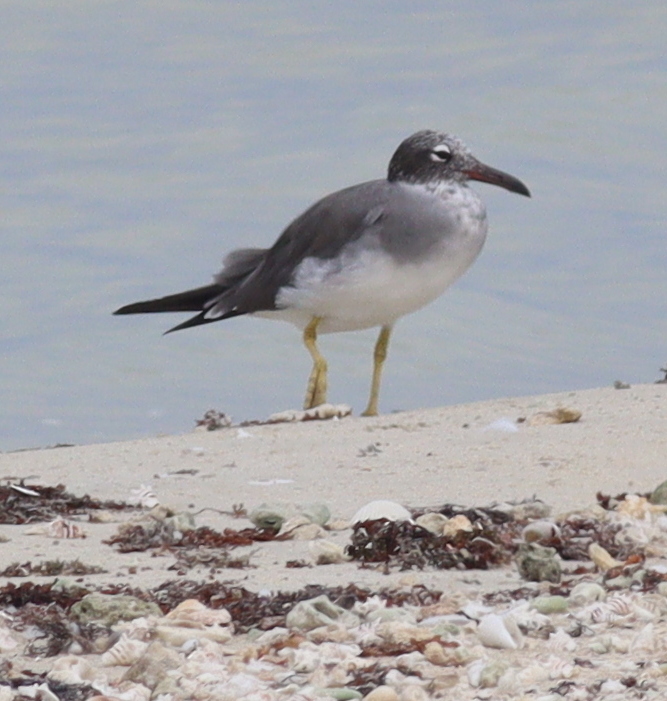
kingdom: Animalia
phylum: Chordata
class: Aves
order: Charadriiformes
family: Laridae
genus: Ichthyaetus
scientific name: Ichthyaetus leucophthalmus
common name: White-eyed gull
